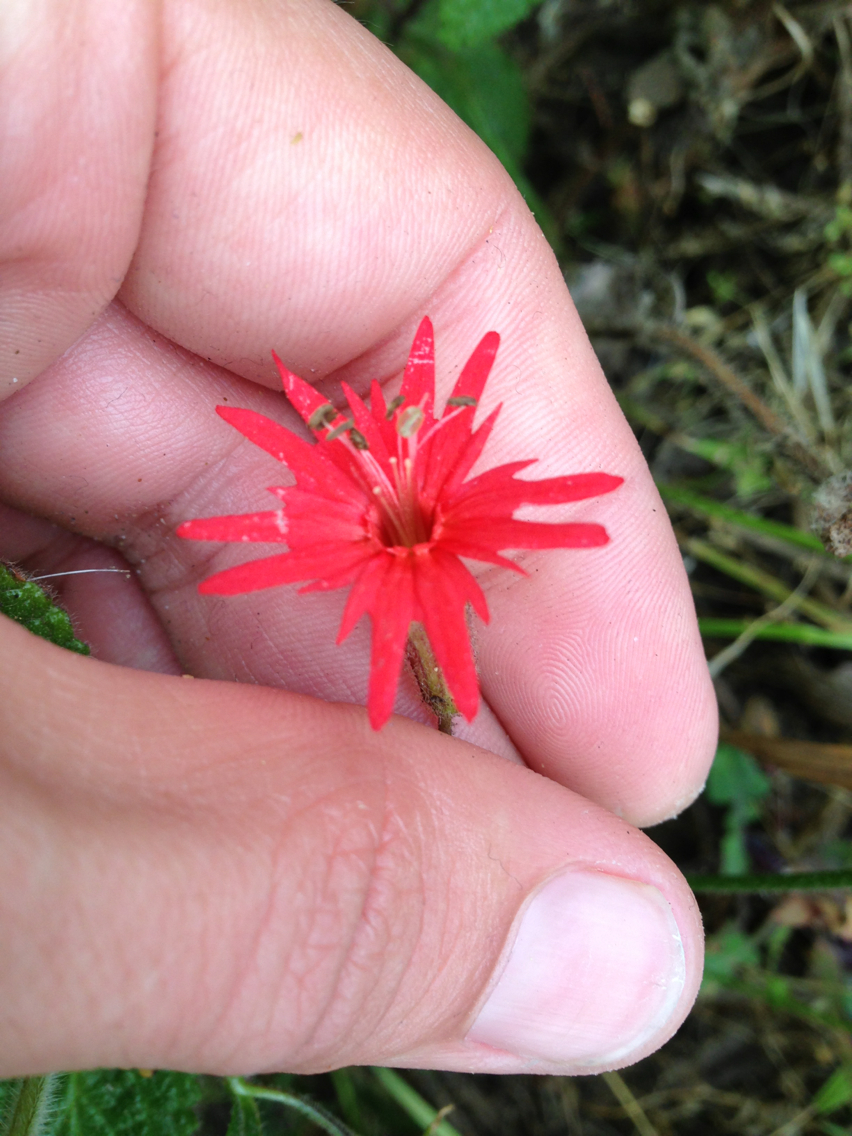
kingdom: Plantae
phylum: Tracheophyta
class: Magnoliopsida
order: Caryophyllales
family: Caryophyllaceae
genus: Silene
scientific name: Silene laciniata
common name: Indian-pink
